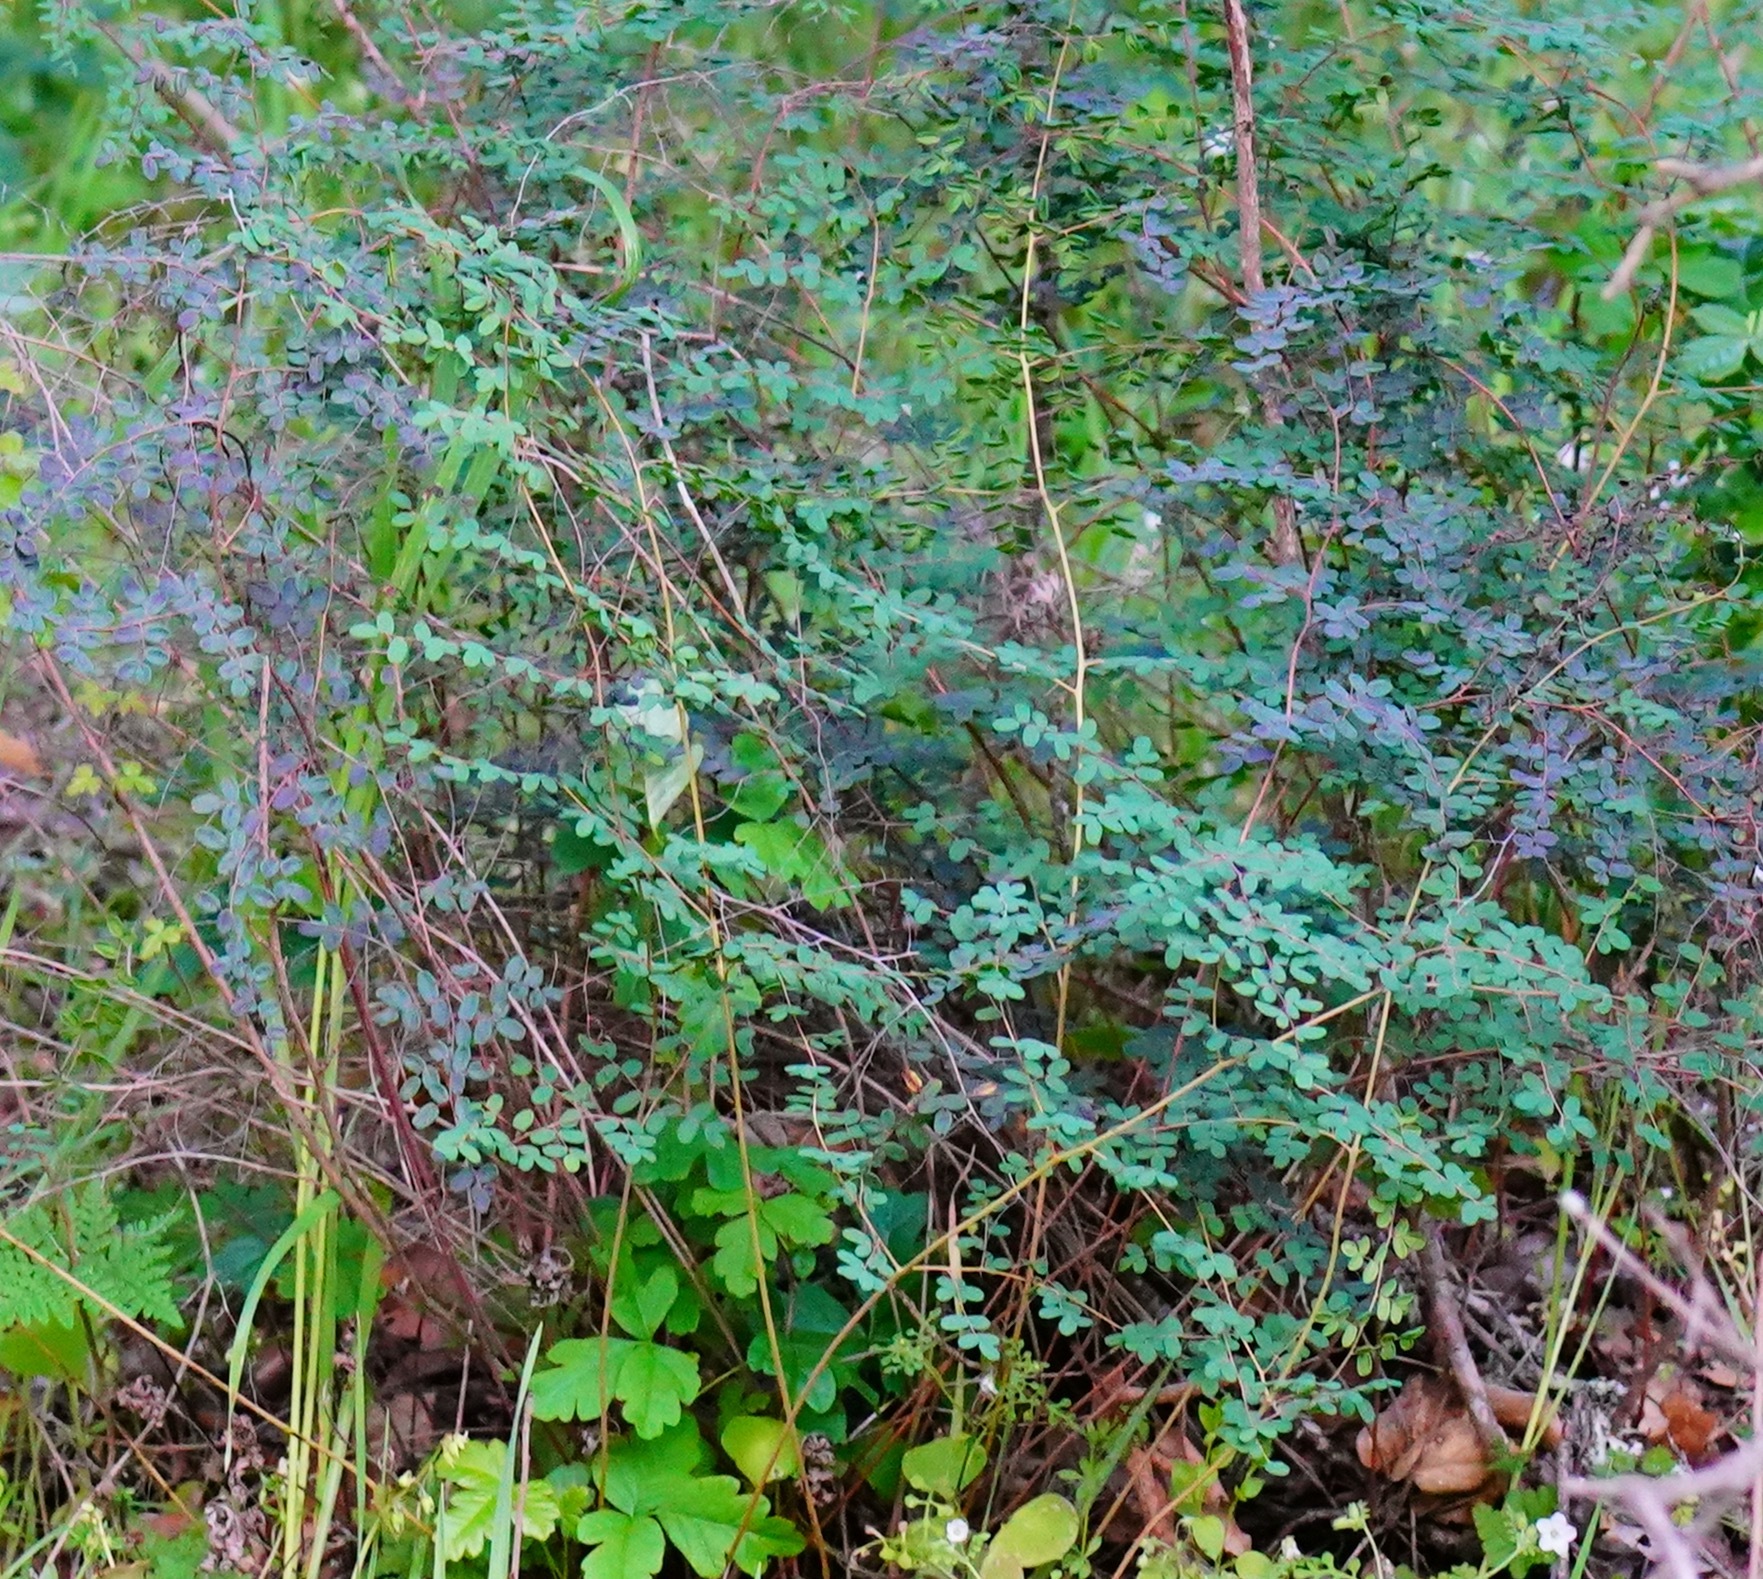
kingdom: Plantae
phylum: Tracheophyta
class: Polypodiopsida
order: Polypodiales
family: Pteridaceae
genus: Pellaea
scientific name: Pellaea andromedifolia
